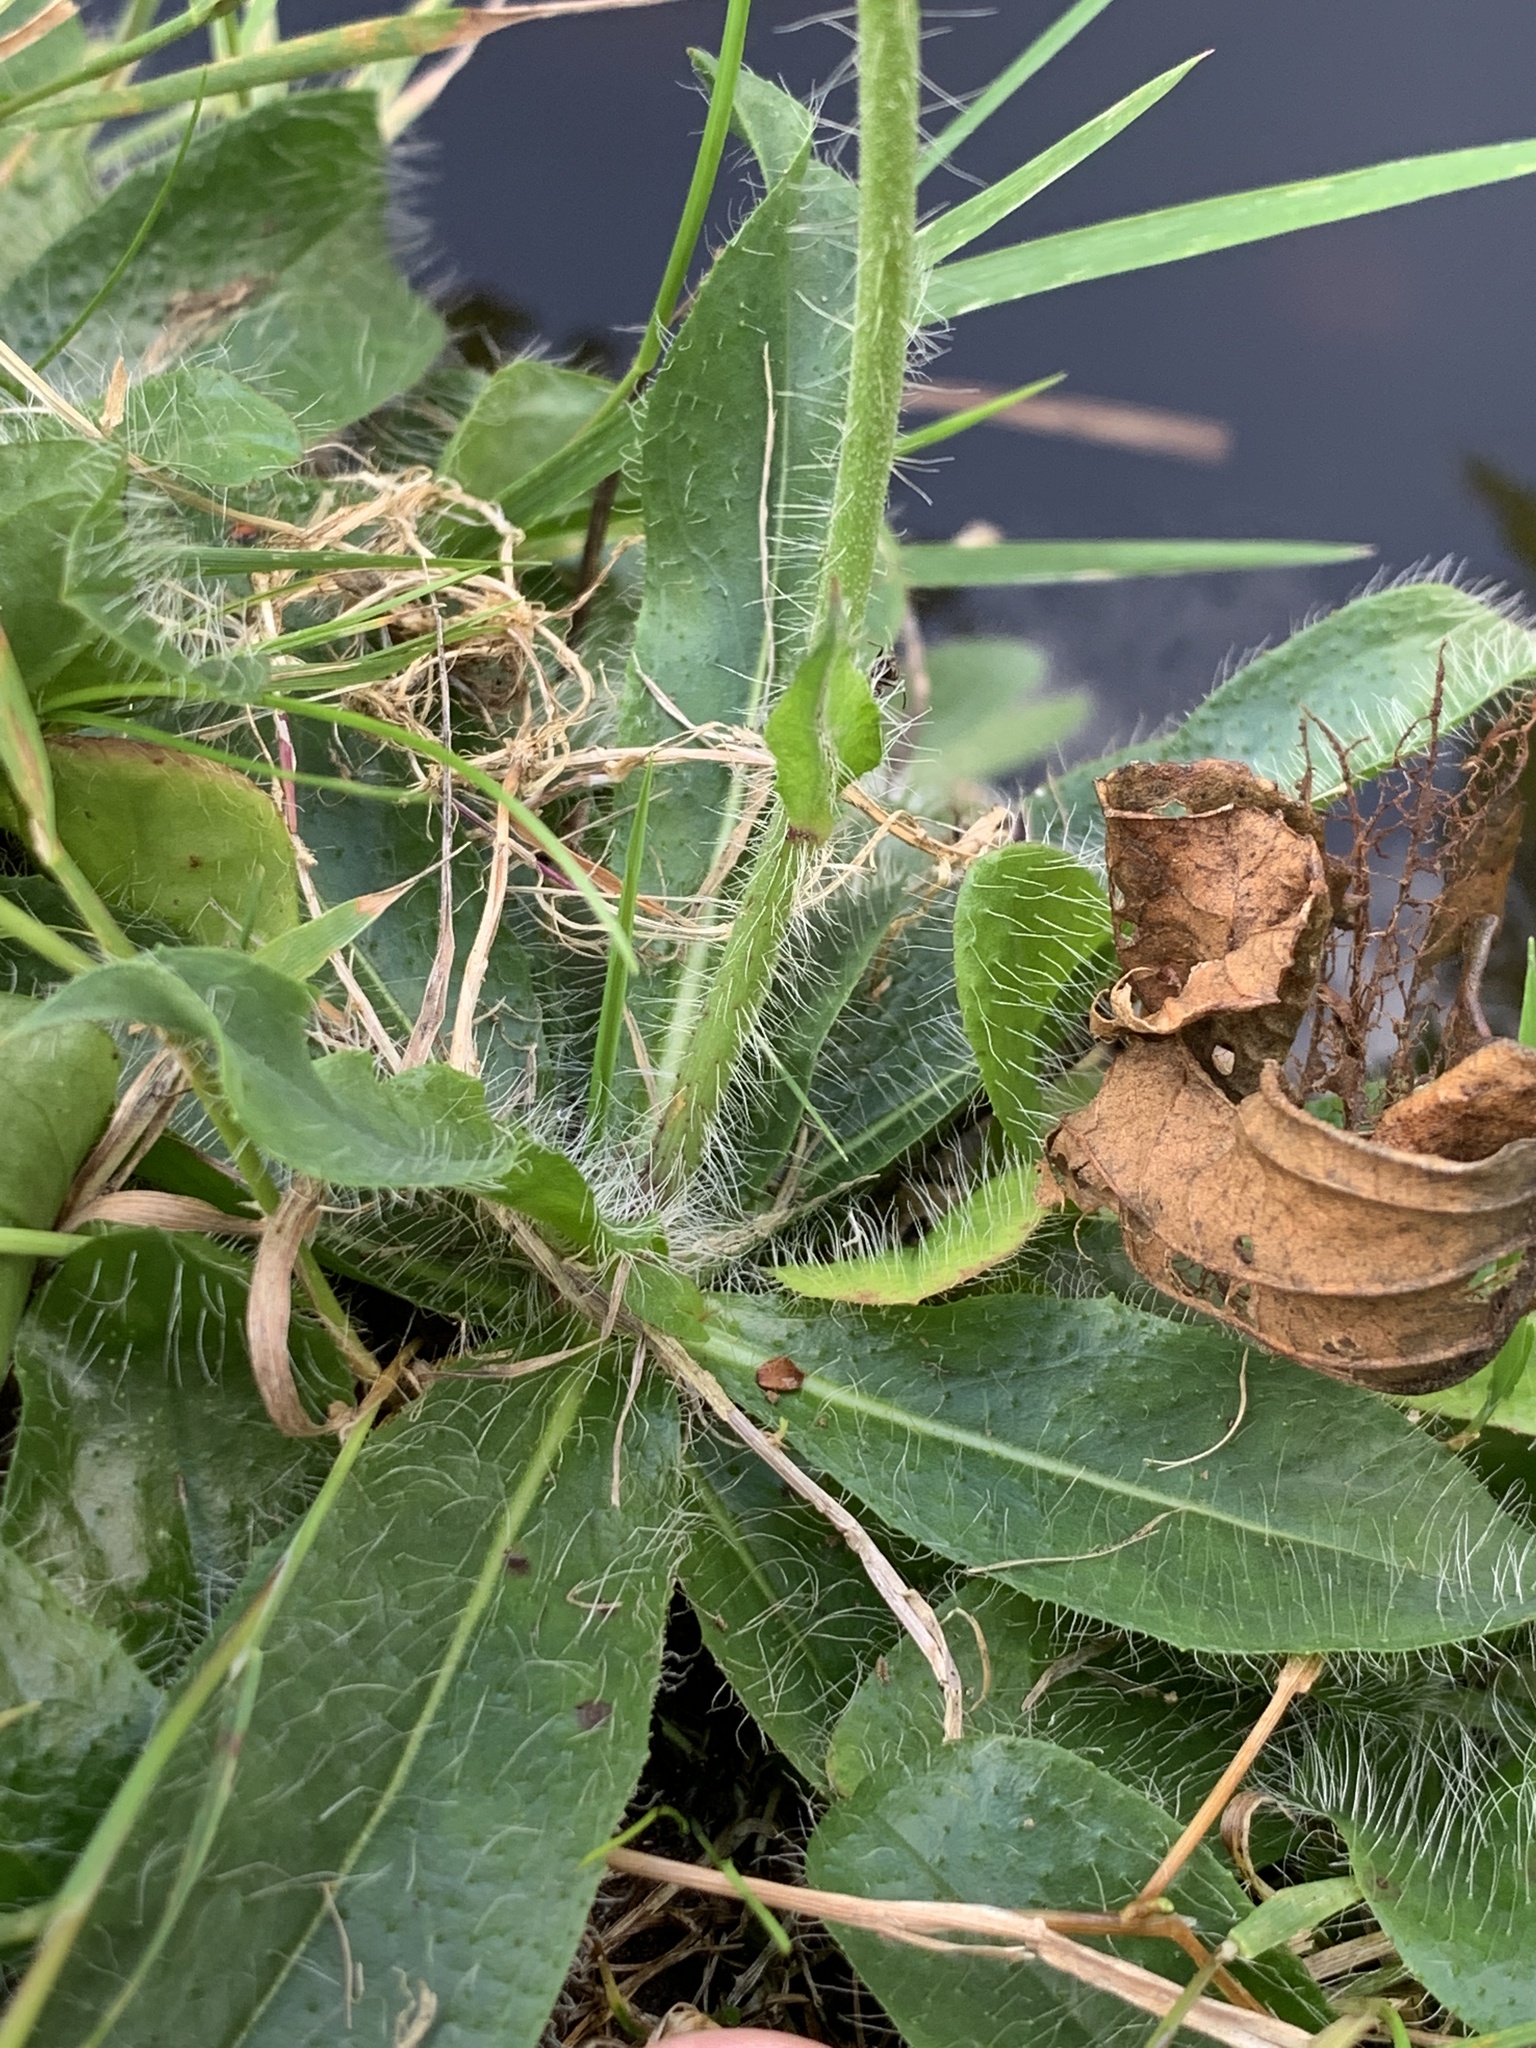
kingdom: Plantae
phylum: Tracheophyta
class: Magnoliopsida
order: Asterales
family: Asteraceae
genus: Pilosella
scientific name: Pilosella aurantiaca
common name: Fox-and-cubs
